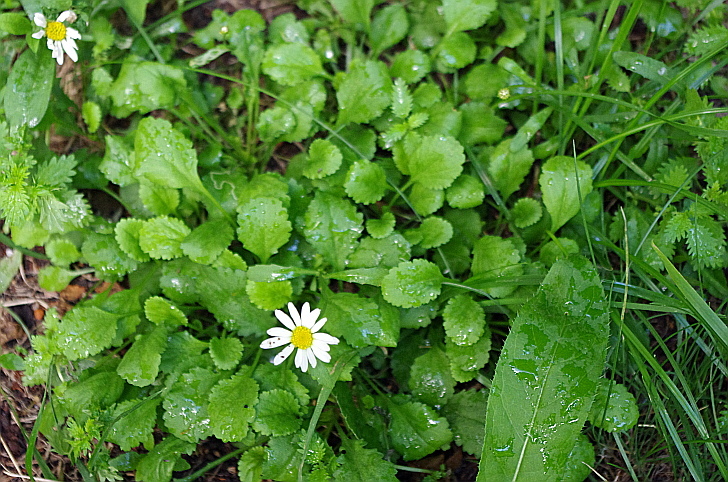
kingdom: Plantae
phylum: Tracheophyta
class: Magnoliopsida
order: Asterales
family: Asteraceae
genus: Leucanthemum
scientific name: Leucanthemum vulgare
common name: Oxeye daisy
